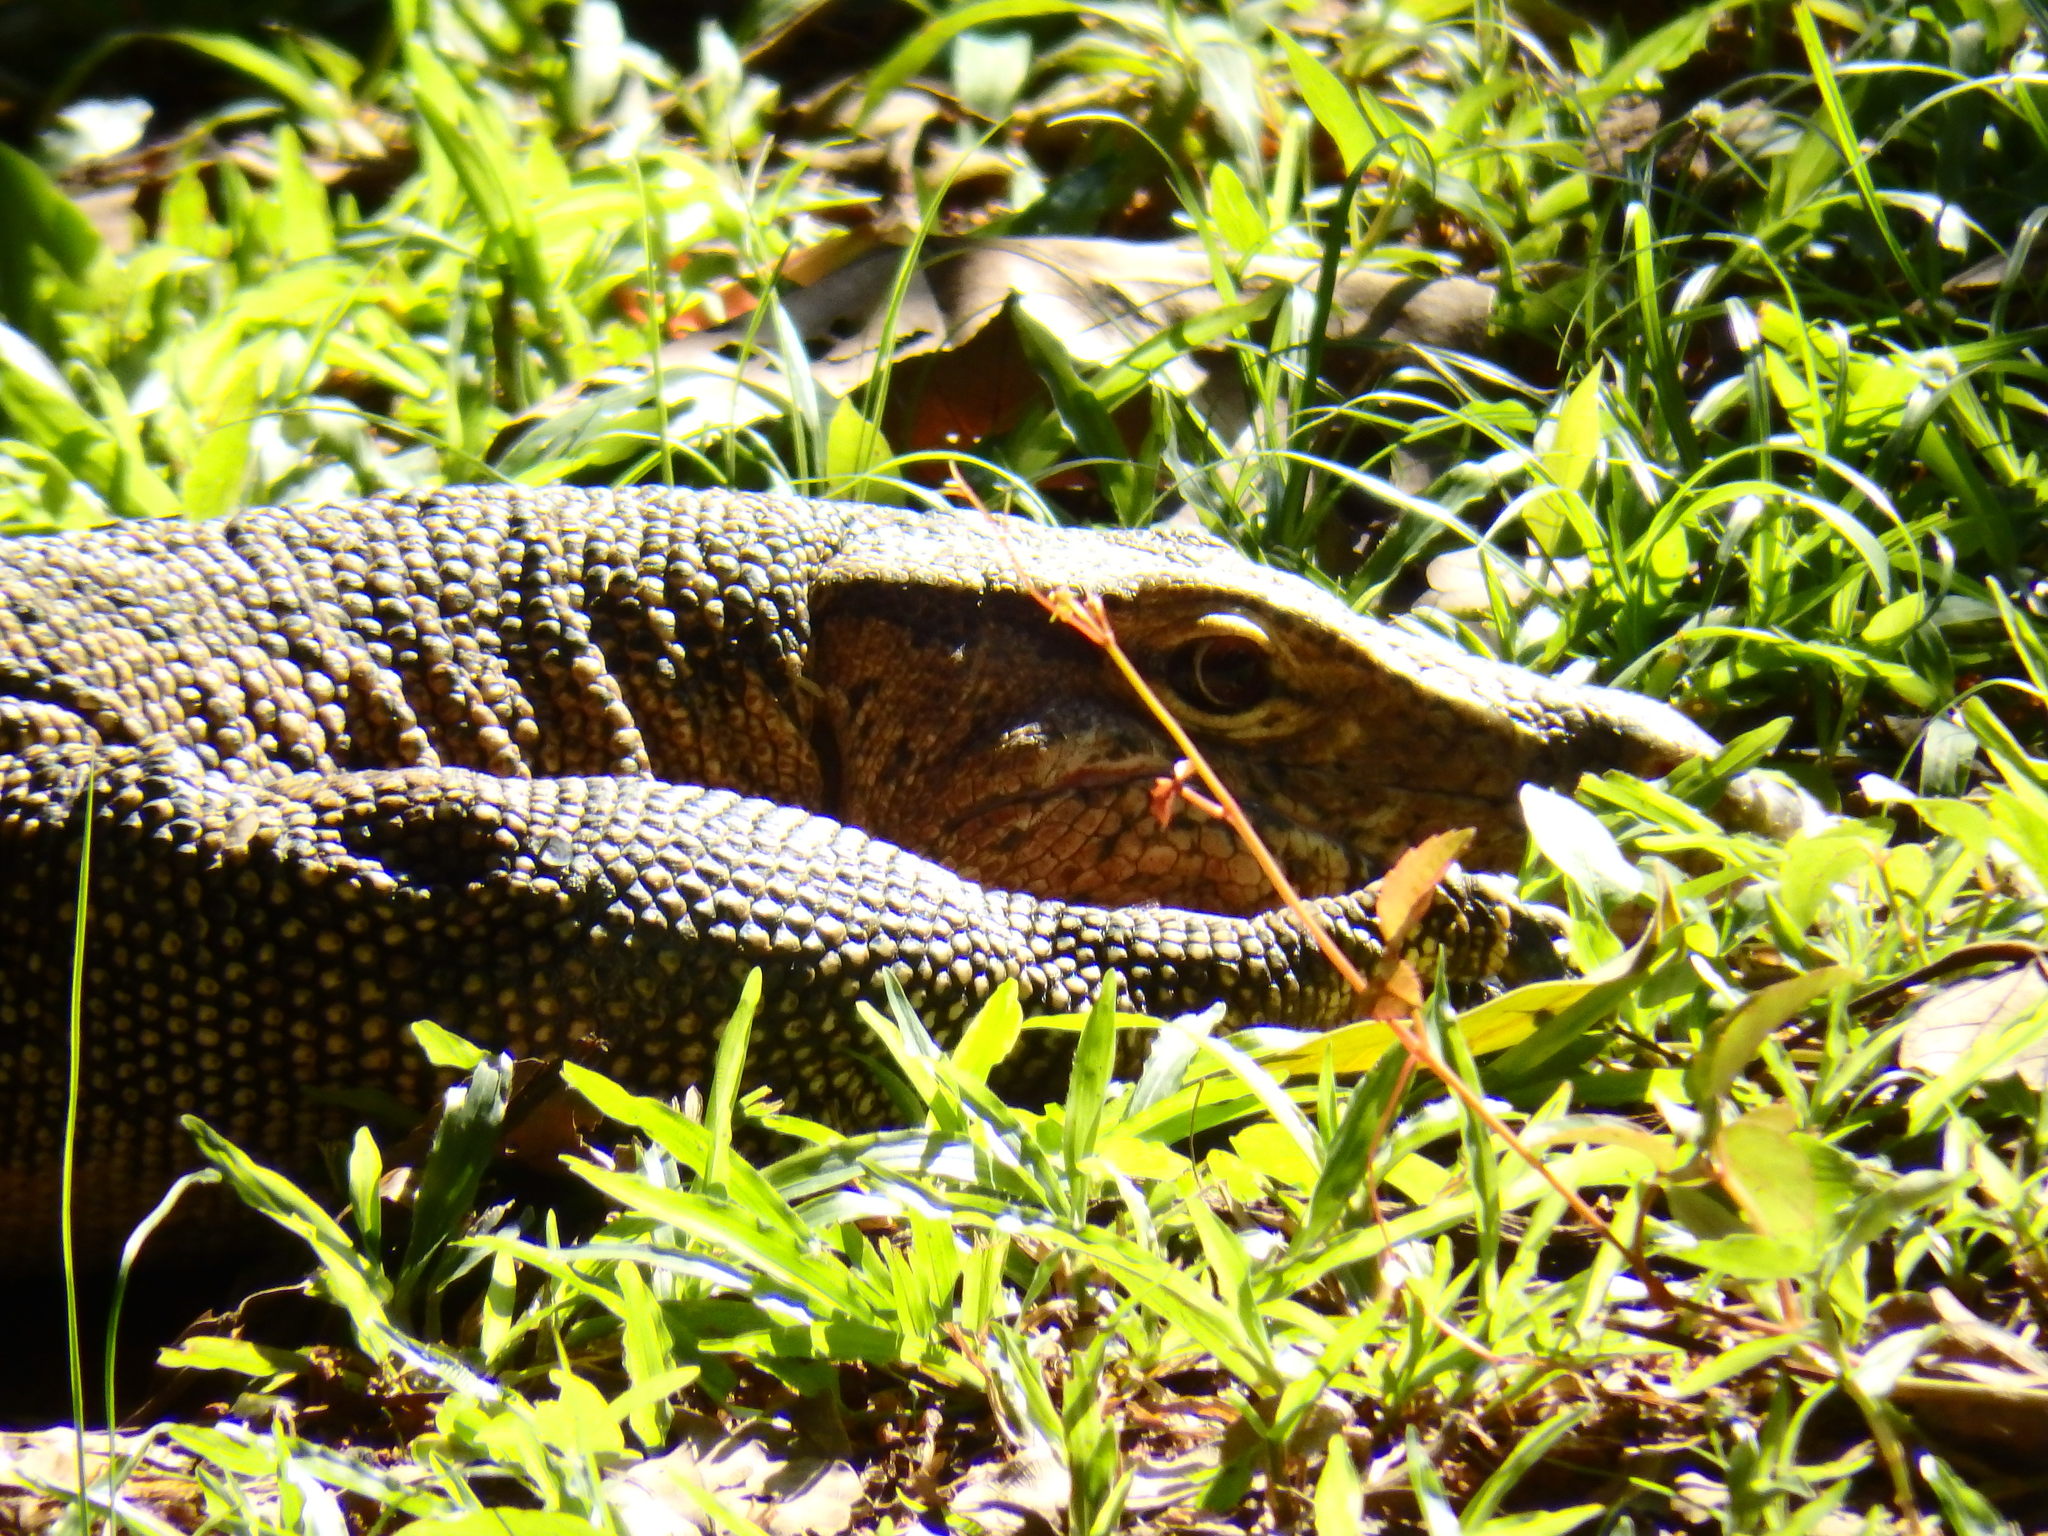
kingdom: Animalia
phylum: Chordata
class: Squamata
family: Varanidae
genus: Varanus
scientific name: Varanus salvator
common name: Common water monitor
